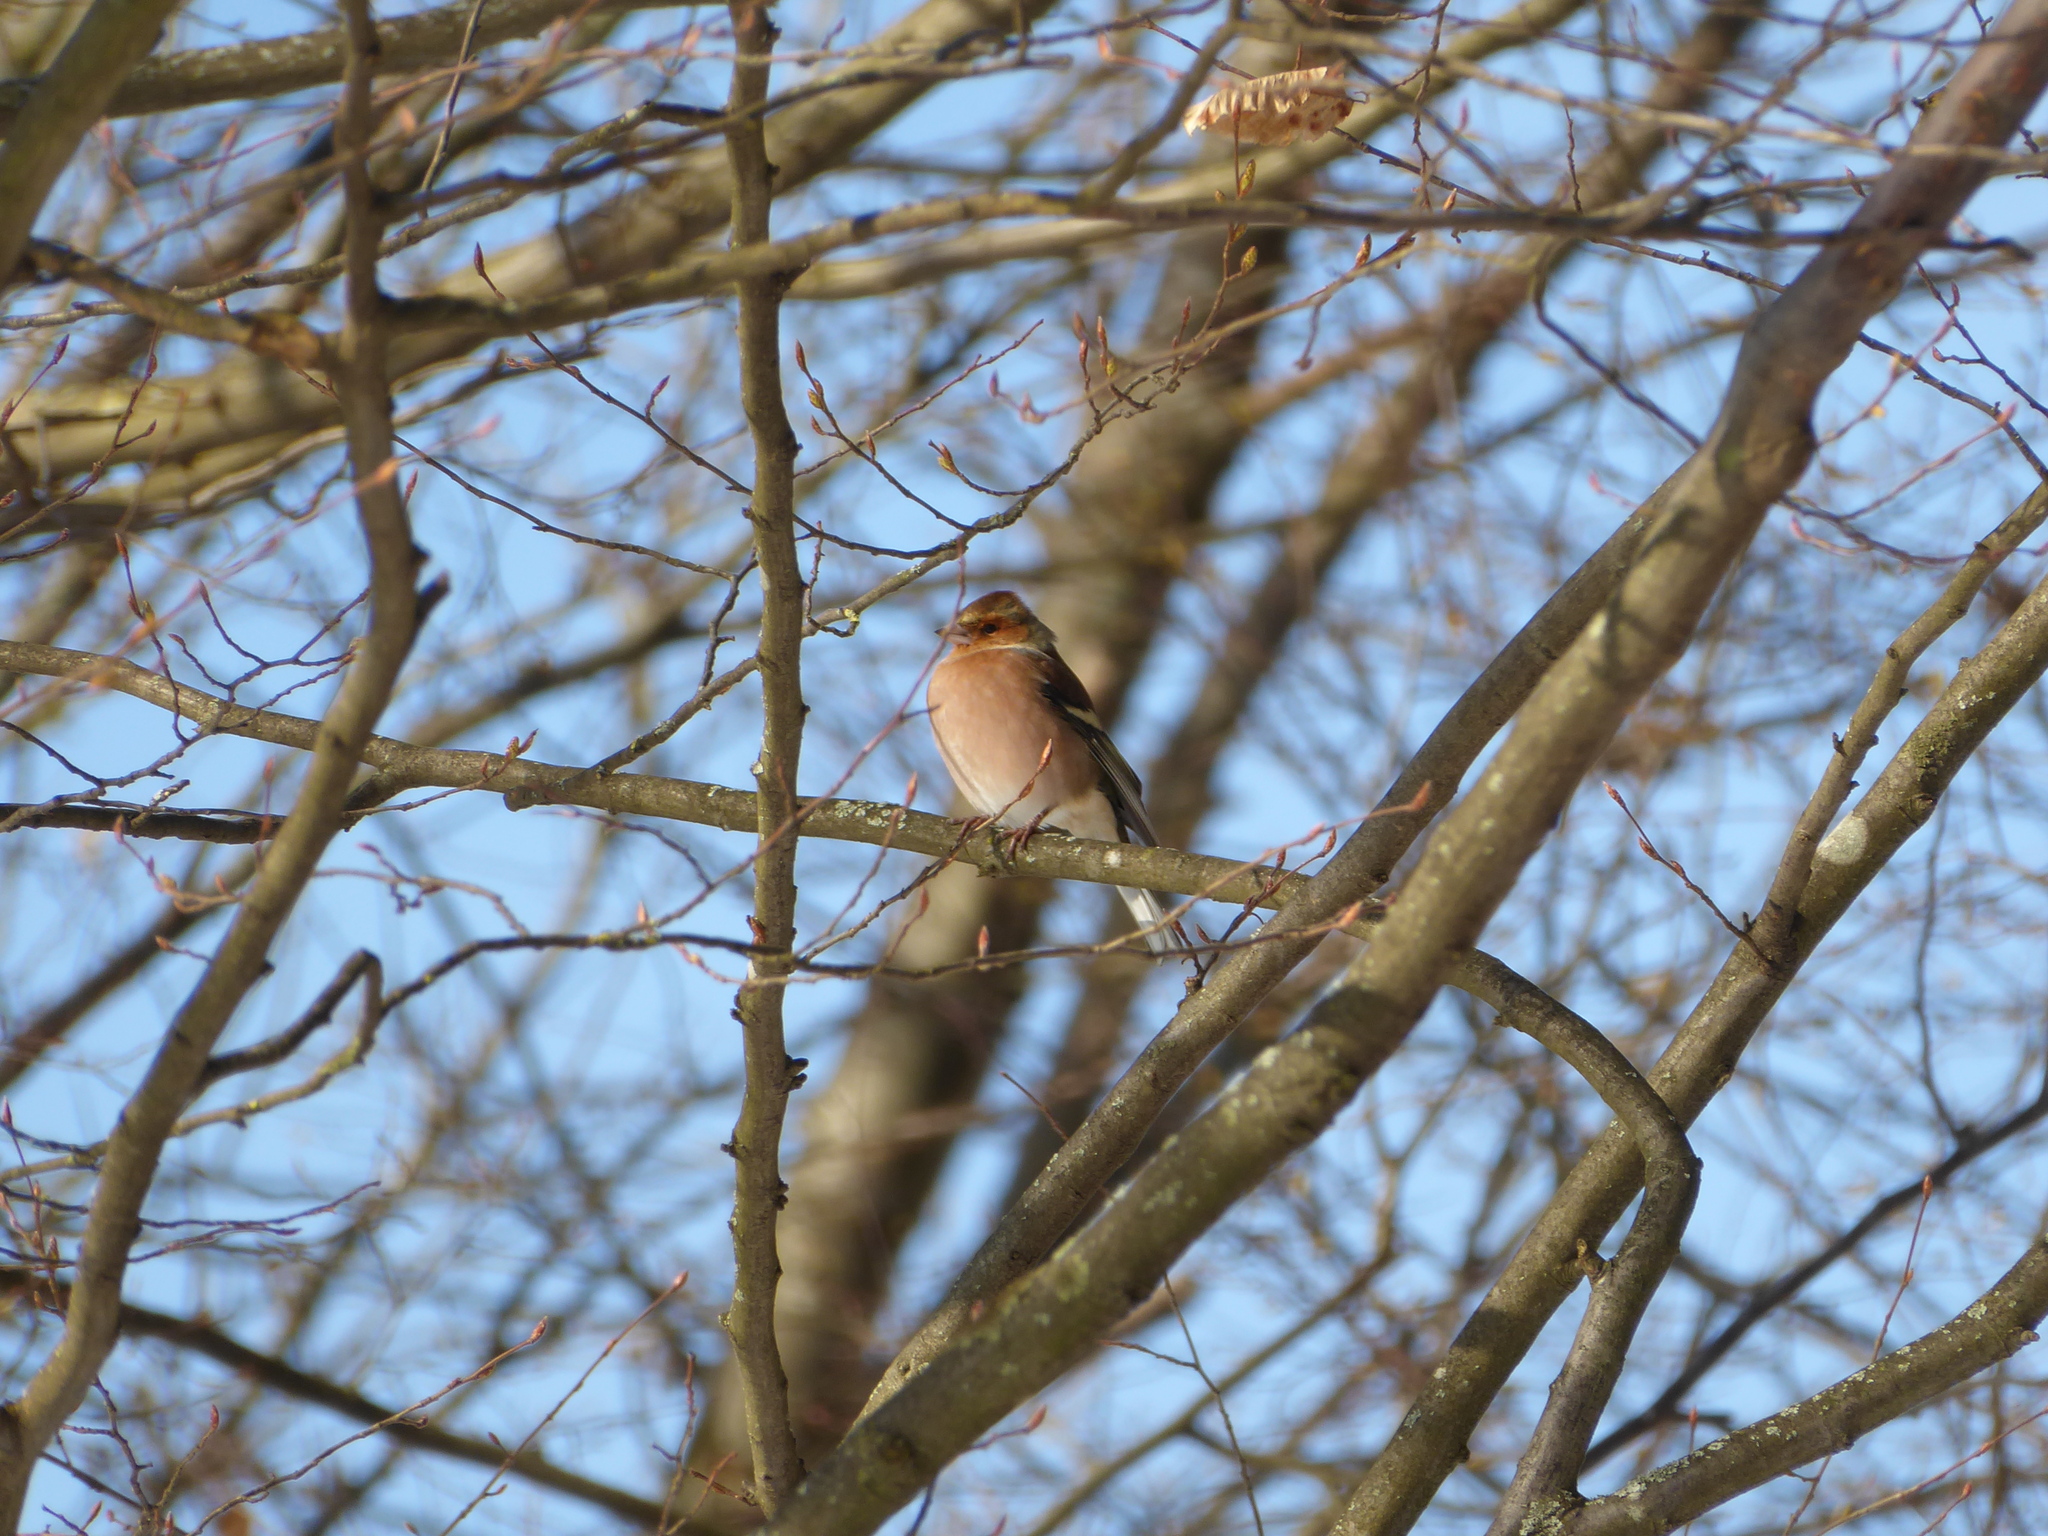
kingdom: Animalia
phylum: Chordata
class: Aves
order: Passeriformes
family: Fringillidae
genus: Fringilla
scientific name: Fringilla coelebs
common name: Common chaffinch
